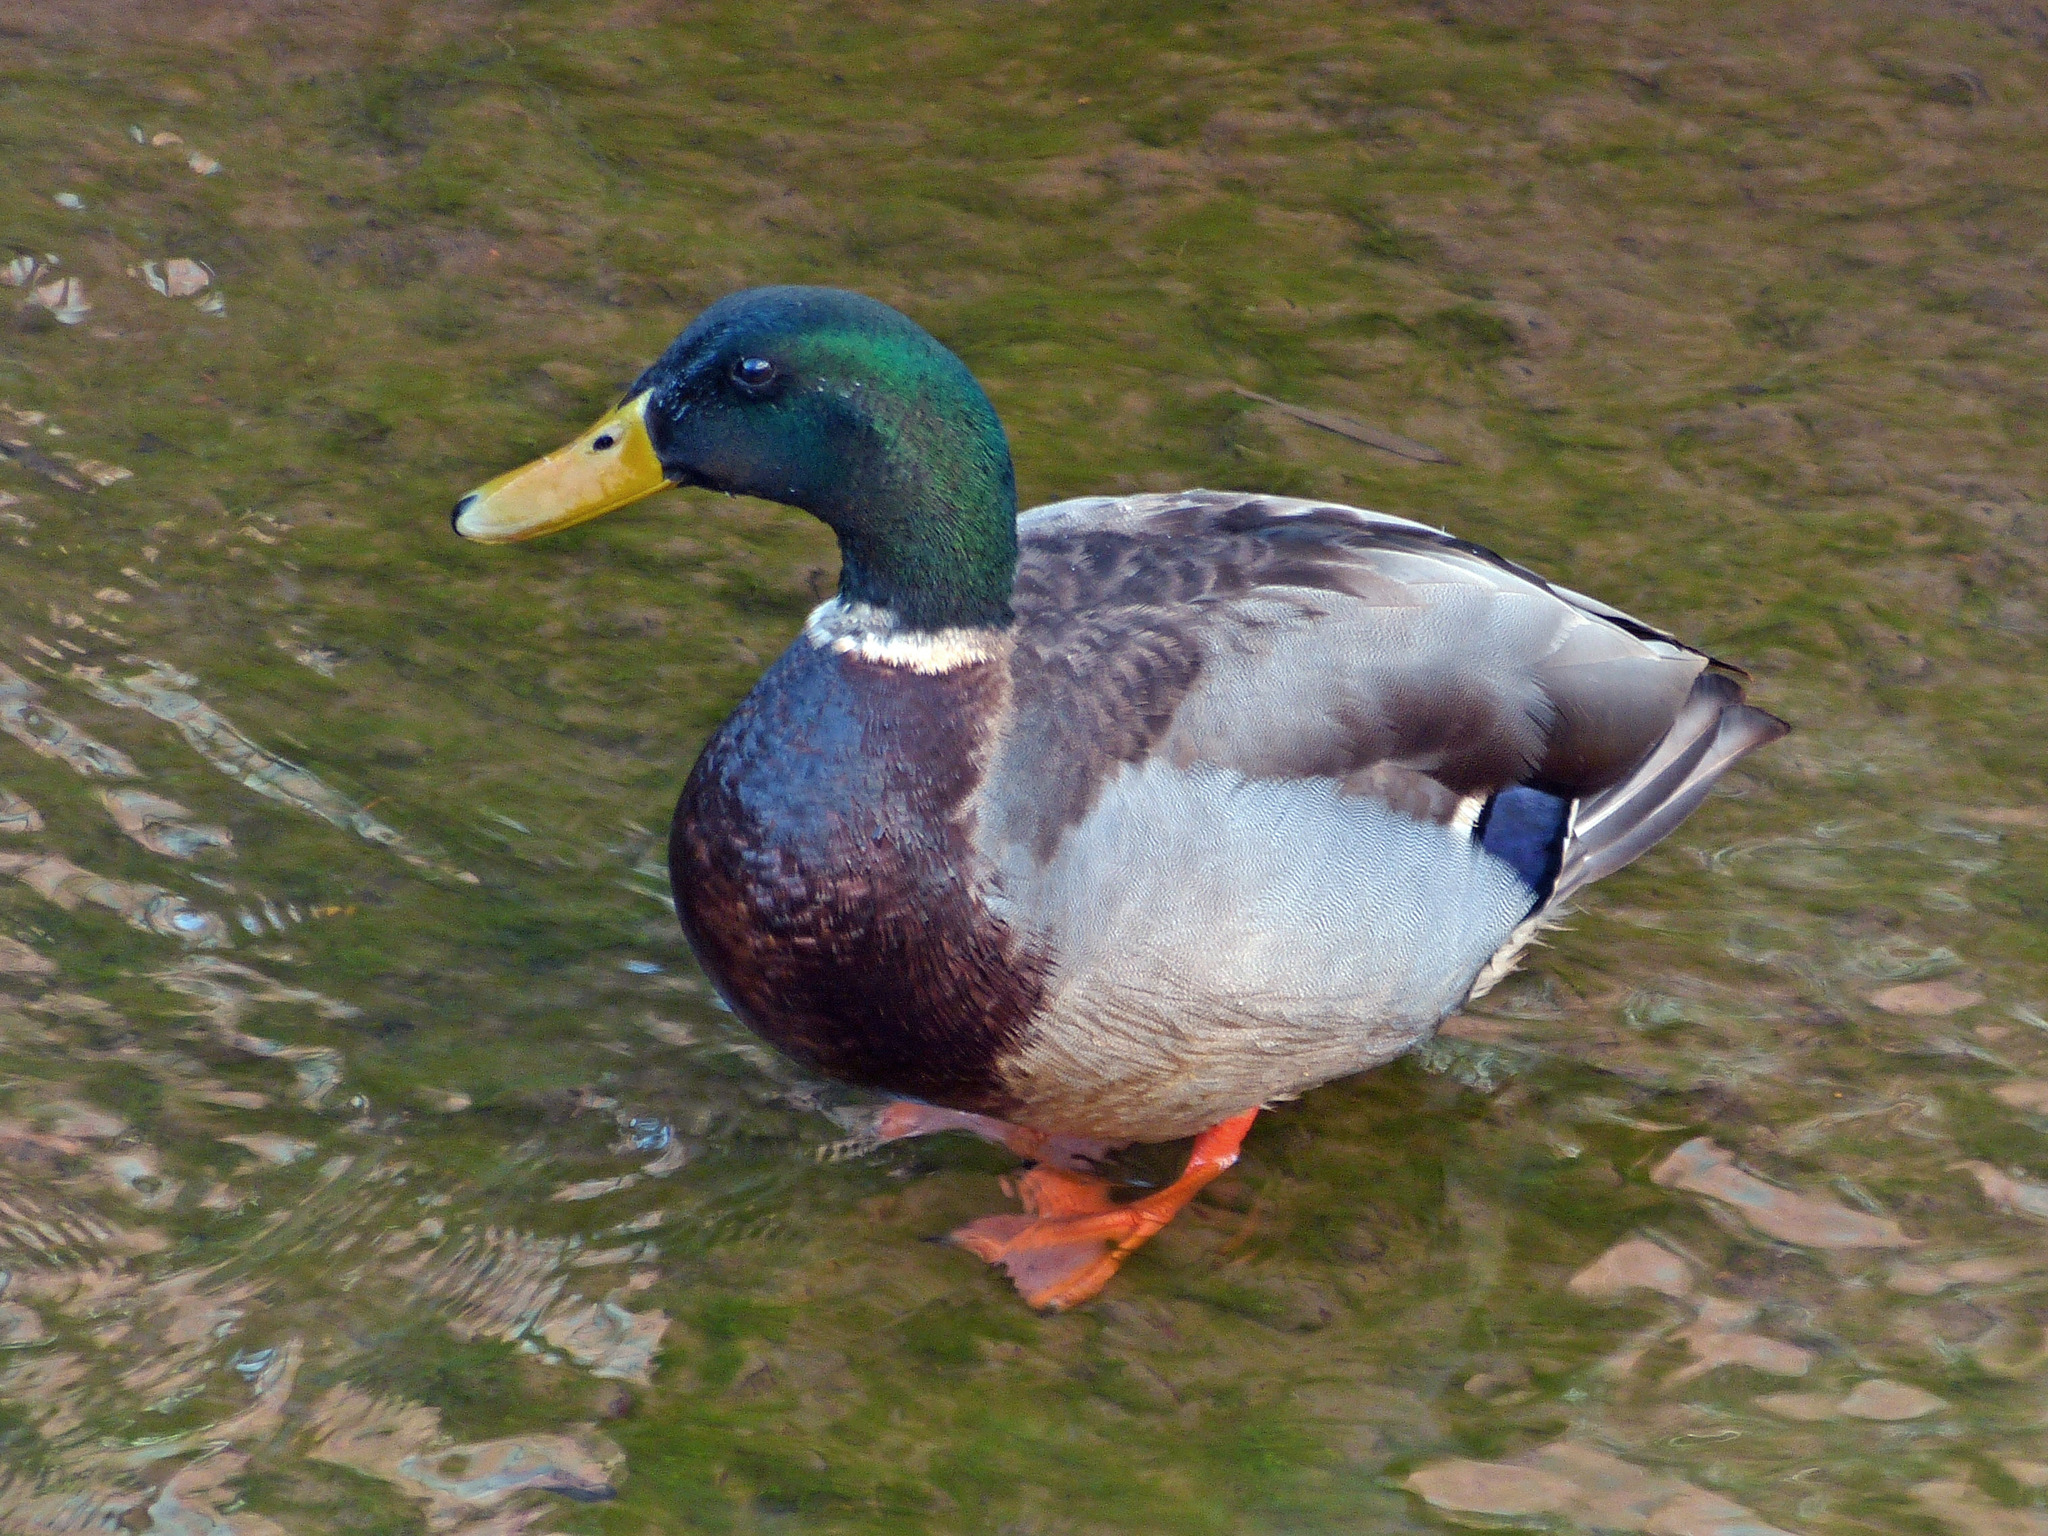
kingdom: Animalia
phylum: Chordata
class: Aves
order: Anseriformes
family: Anatidae
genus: Anas
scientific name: Anas platyrhynchos
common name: Mallard
